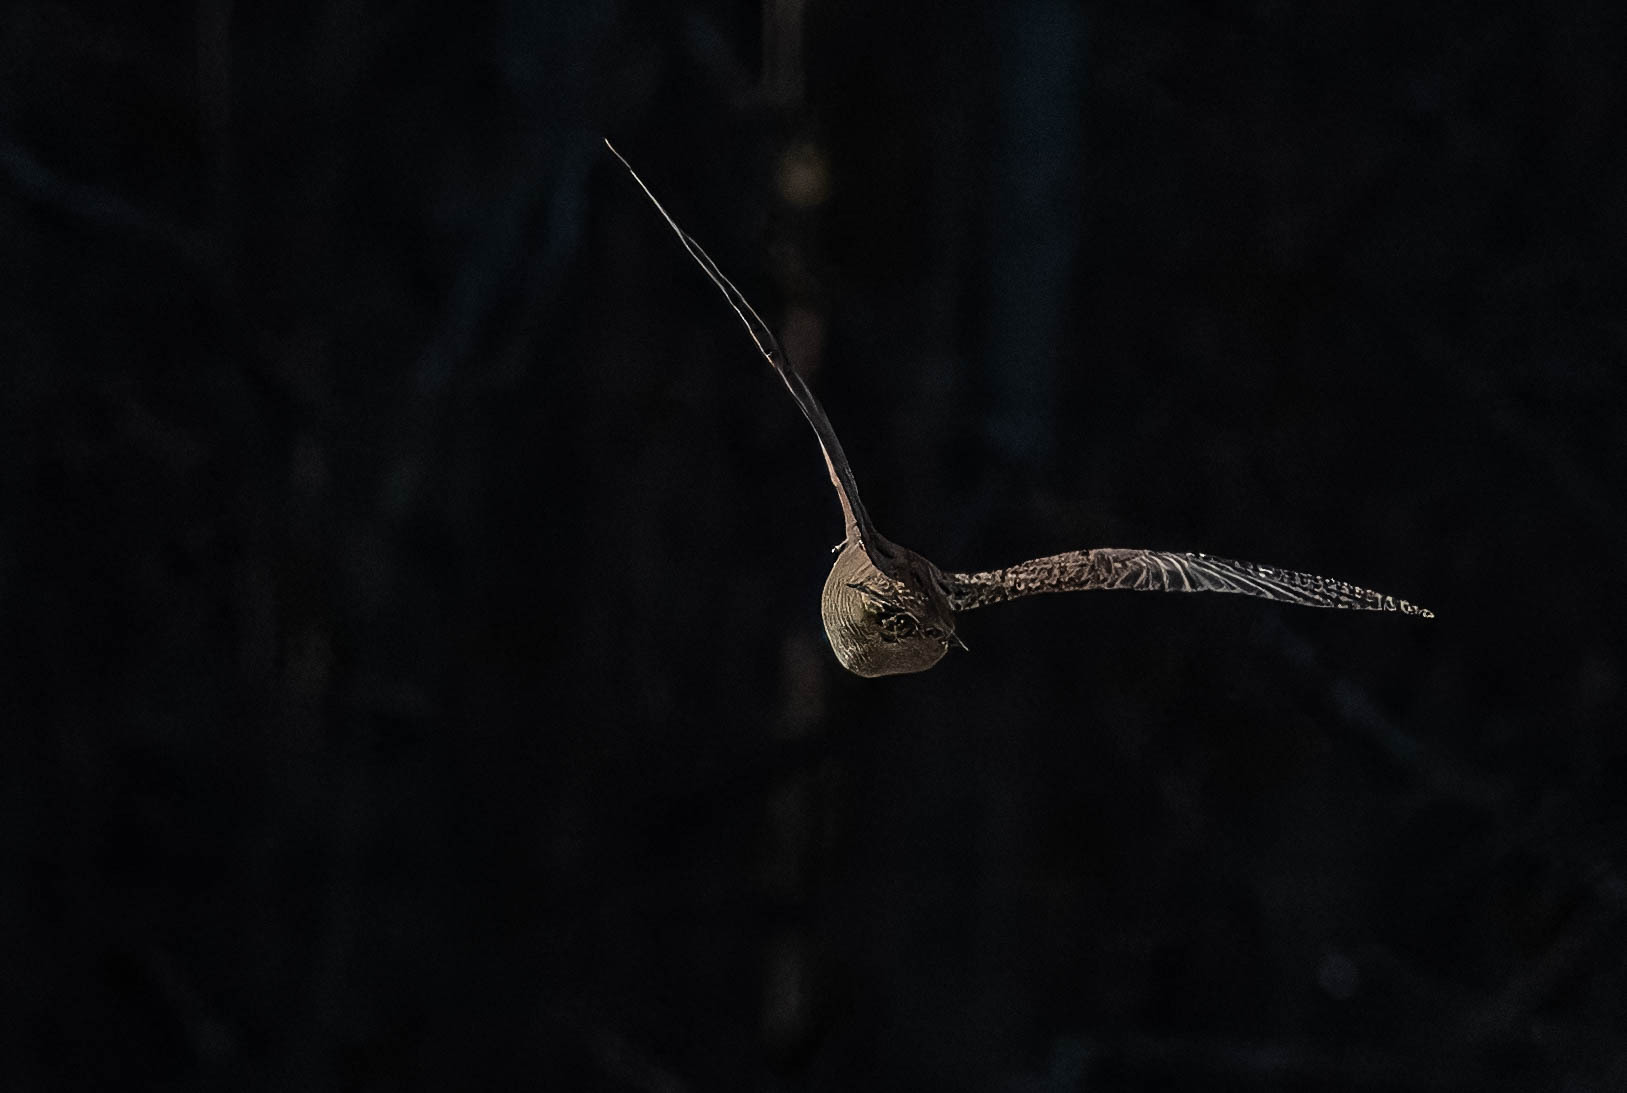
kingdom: Animalia
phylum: Chordata
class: Aves
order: Charadriiformes
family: Scolopacidae
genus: Scolopax
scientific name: Scolopax rusticola
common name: Eurasian woodcock
